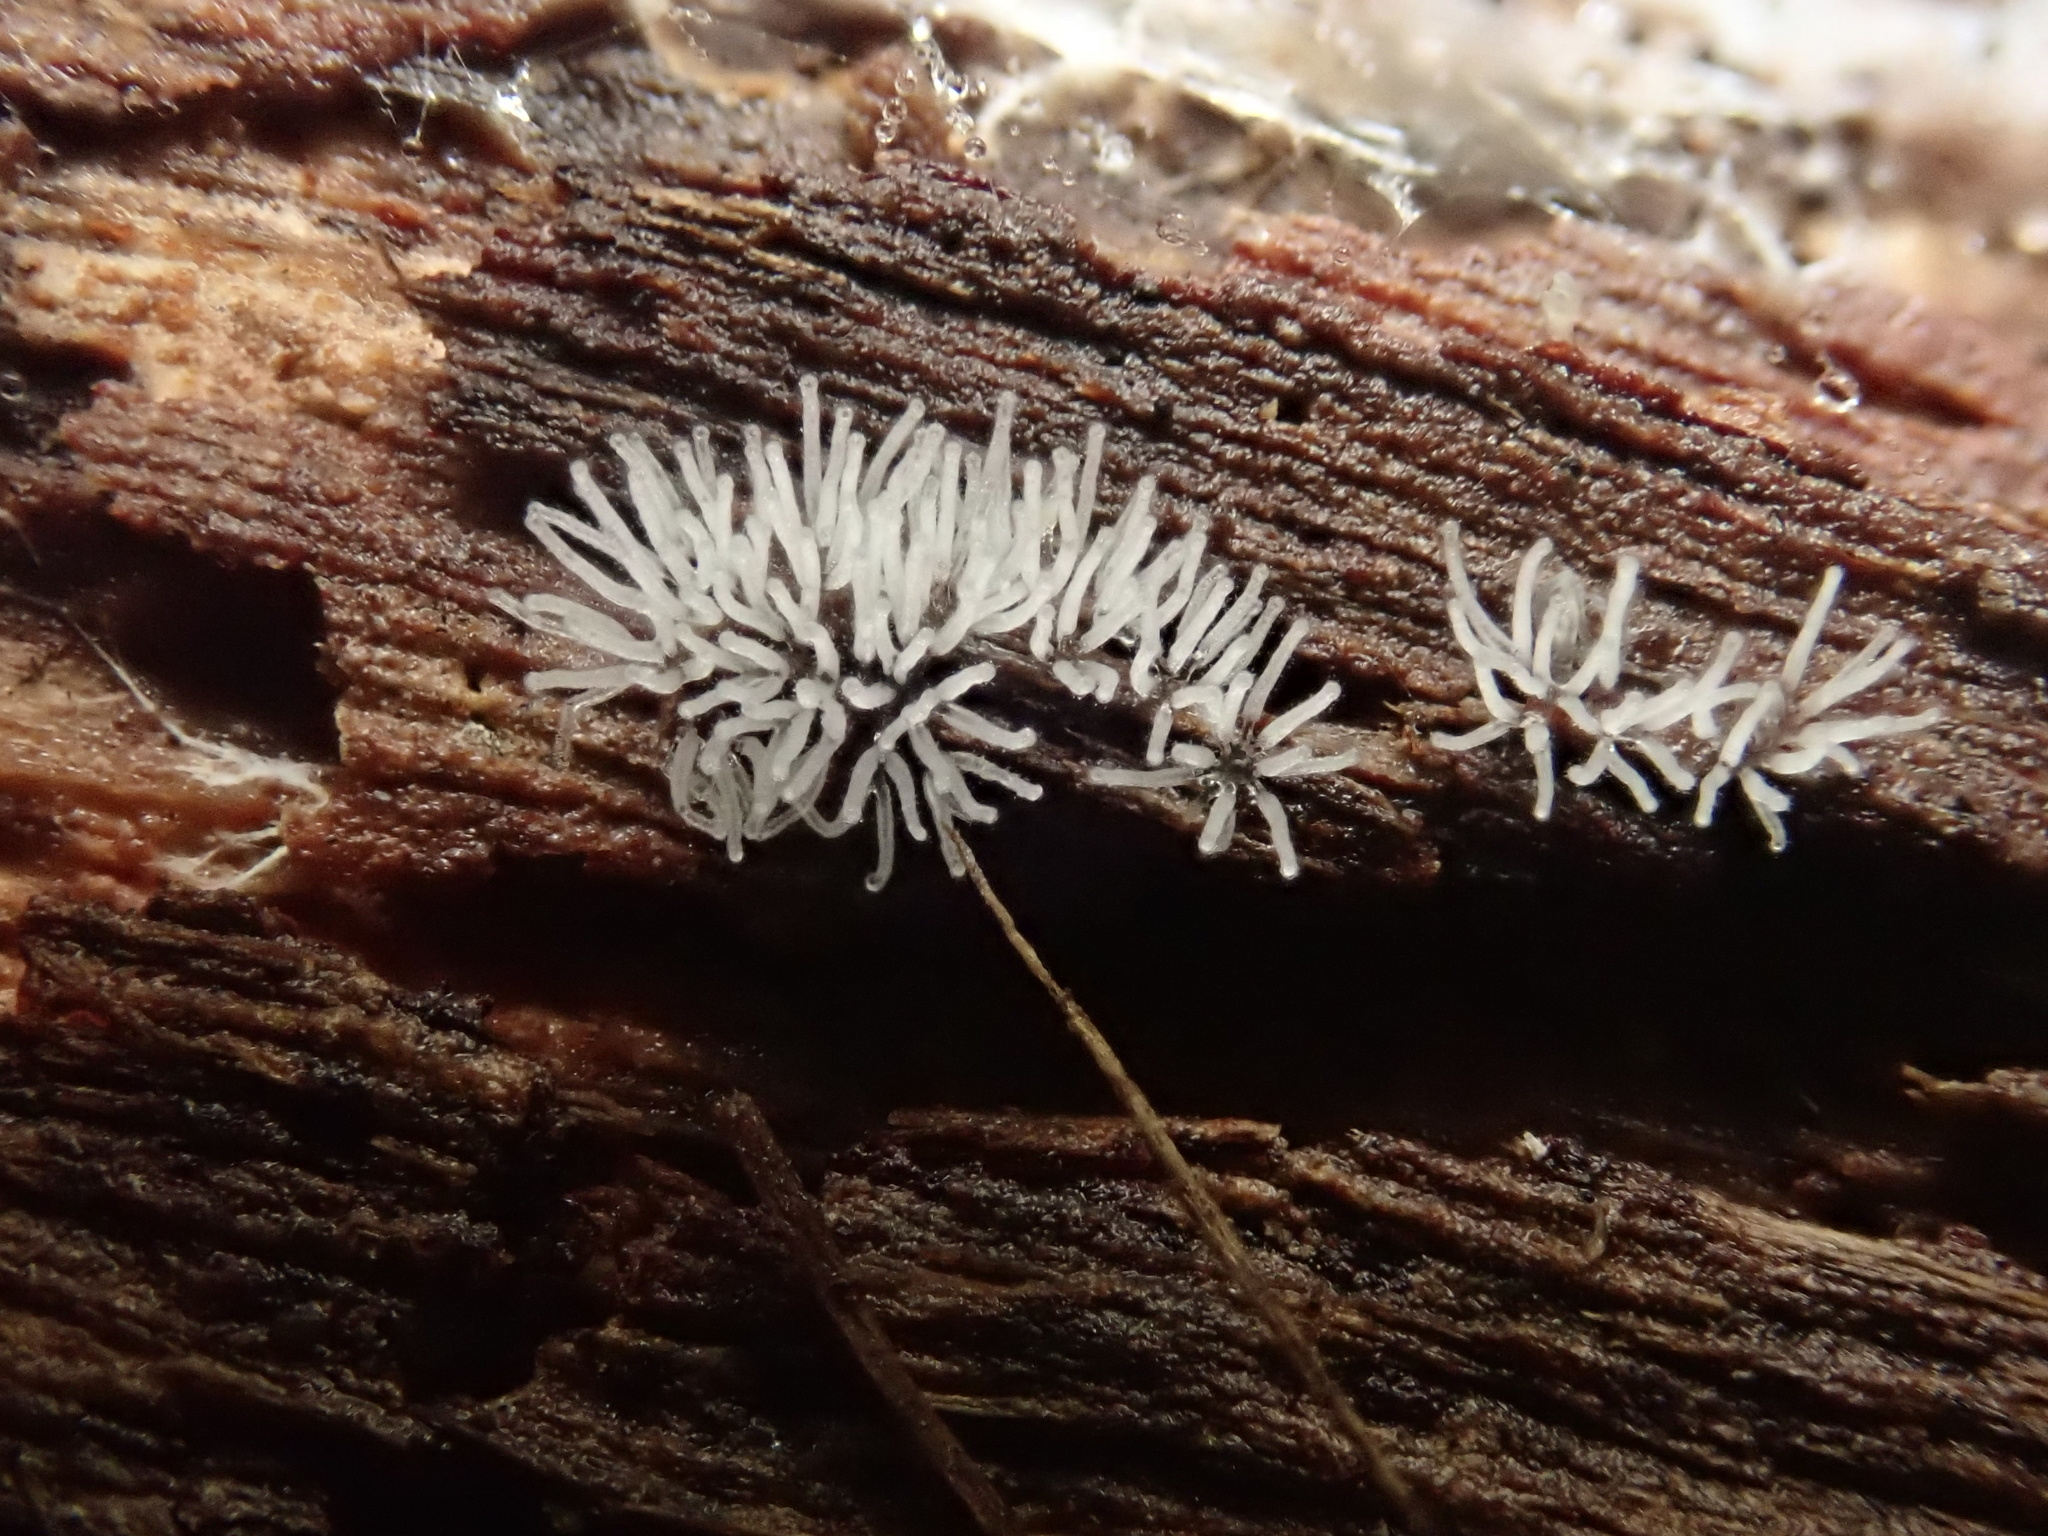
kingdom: Protozoa
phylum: Mycetozoa
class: Protosteliomycetes
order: Ceratiomyxales
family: Ceratiomyxaceae
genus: Ceratiomyxa
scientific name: Ceratiomyxa fruticulosa
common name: Honeycomb coral slime mold
